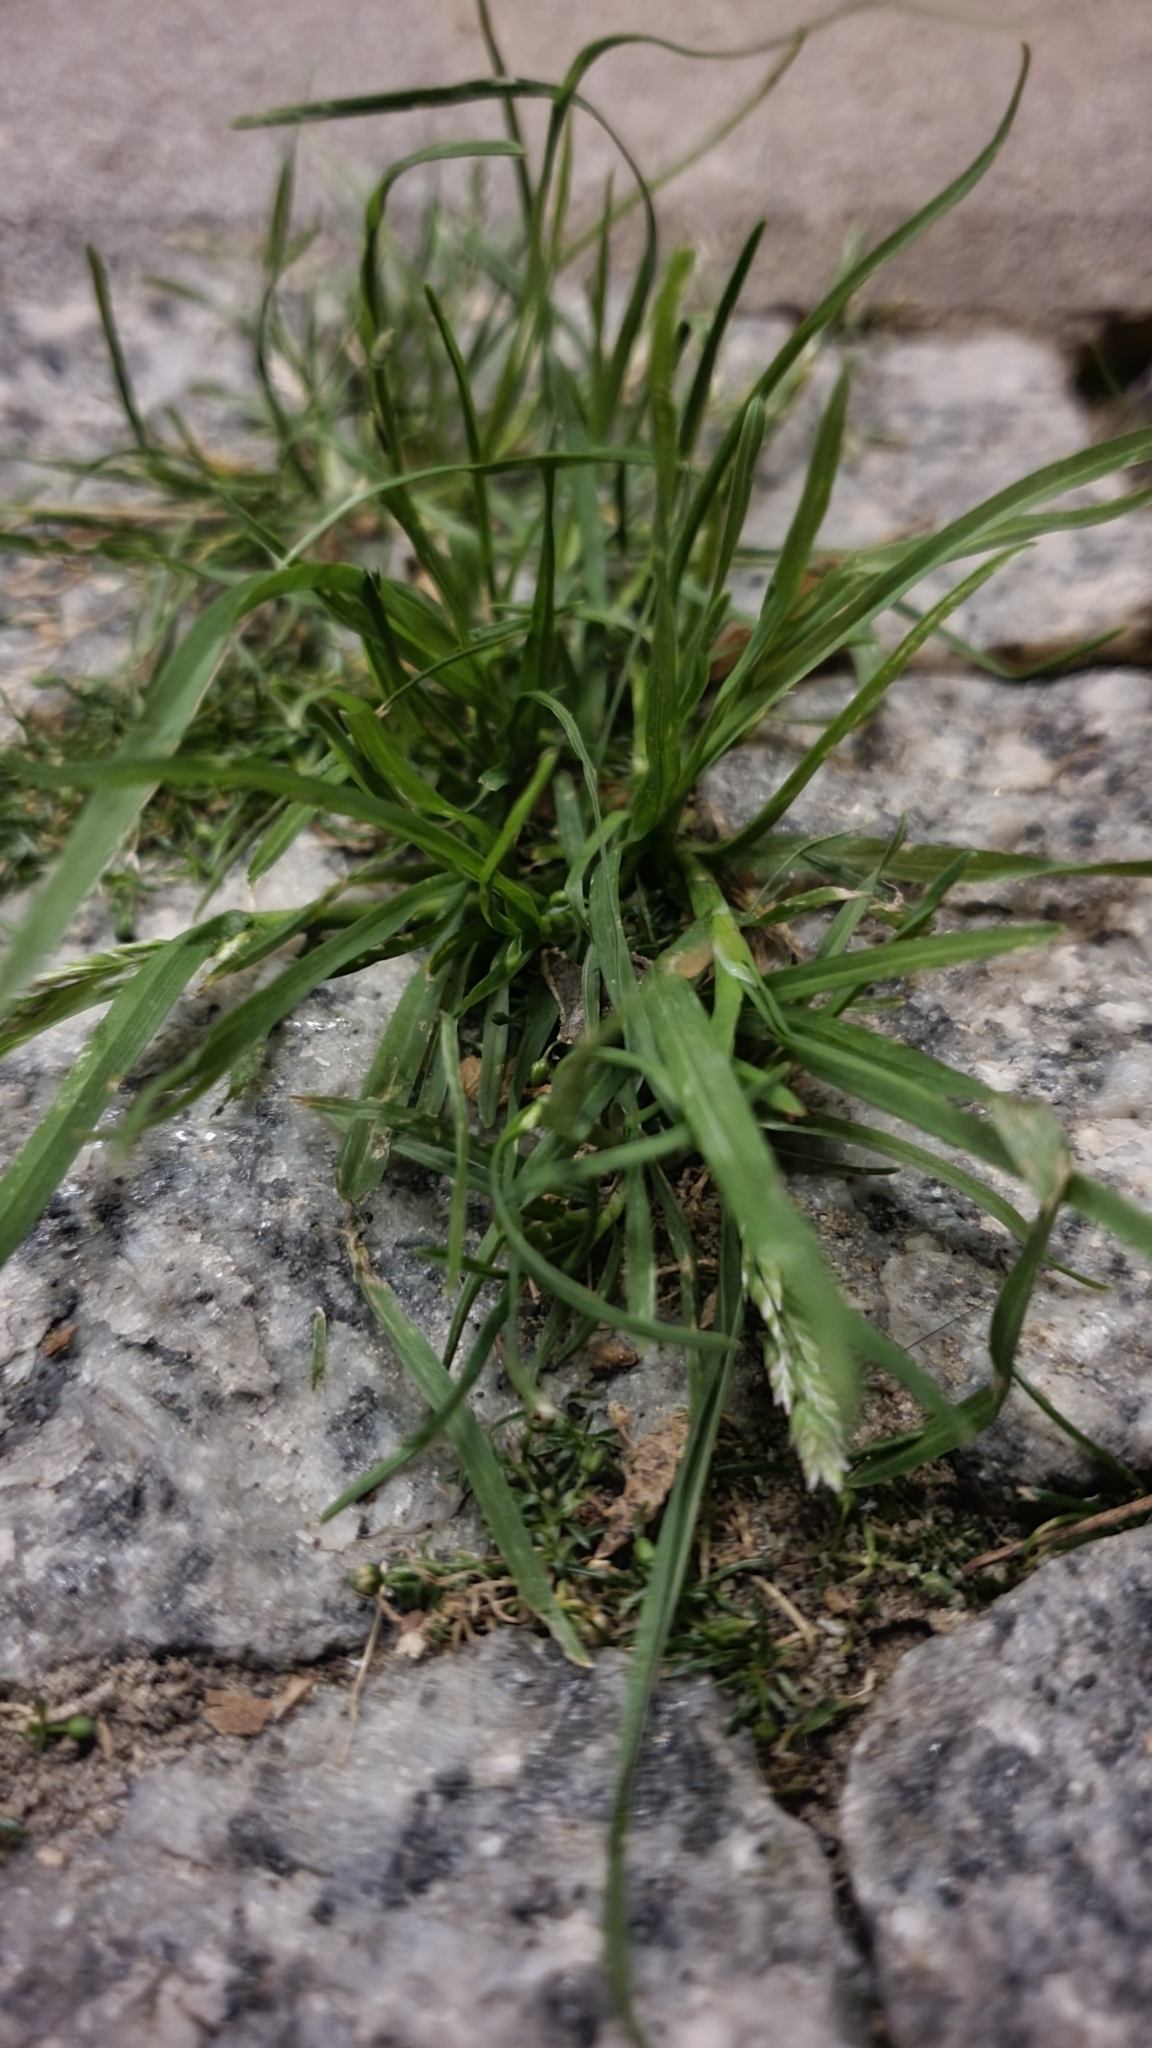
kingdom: Plantae
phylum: Tracheophyta
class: Liliopsida
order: Poales
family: Poaceae
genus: Poa
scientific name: Poa annua
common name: Annual bluegrass
